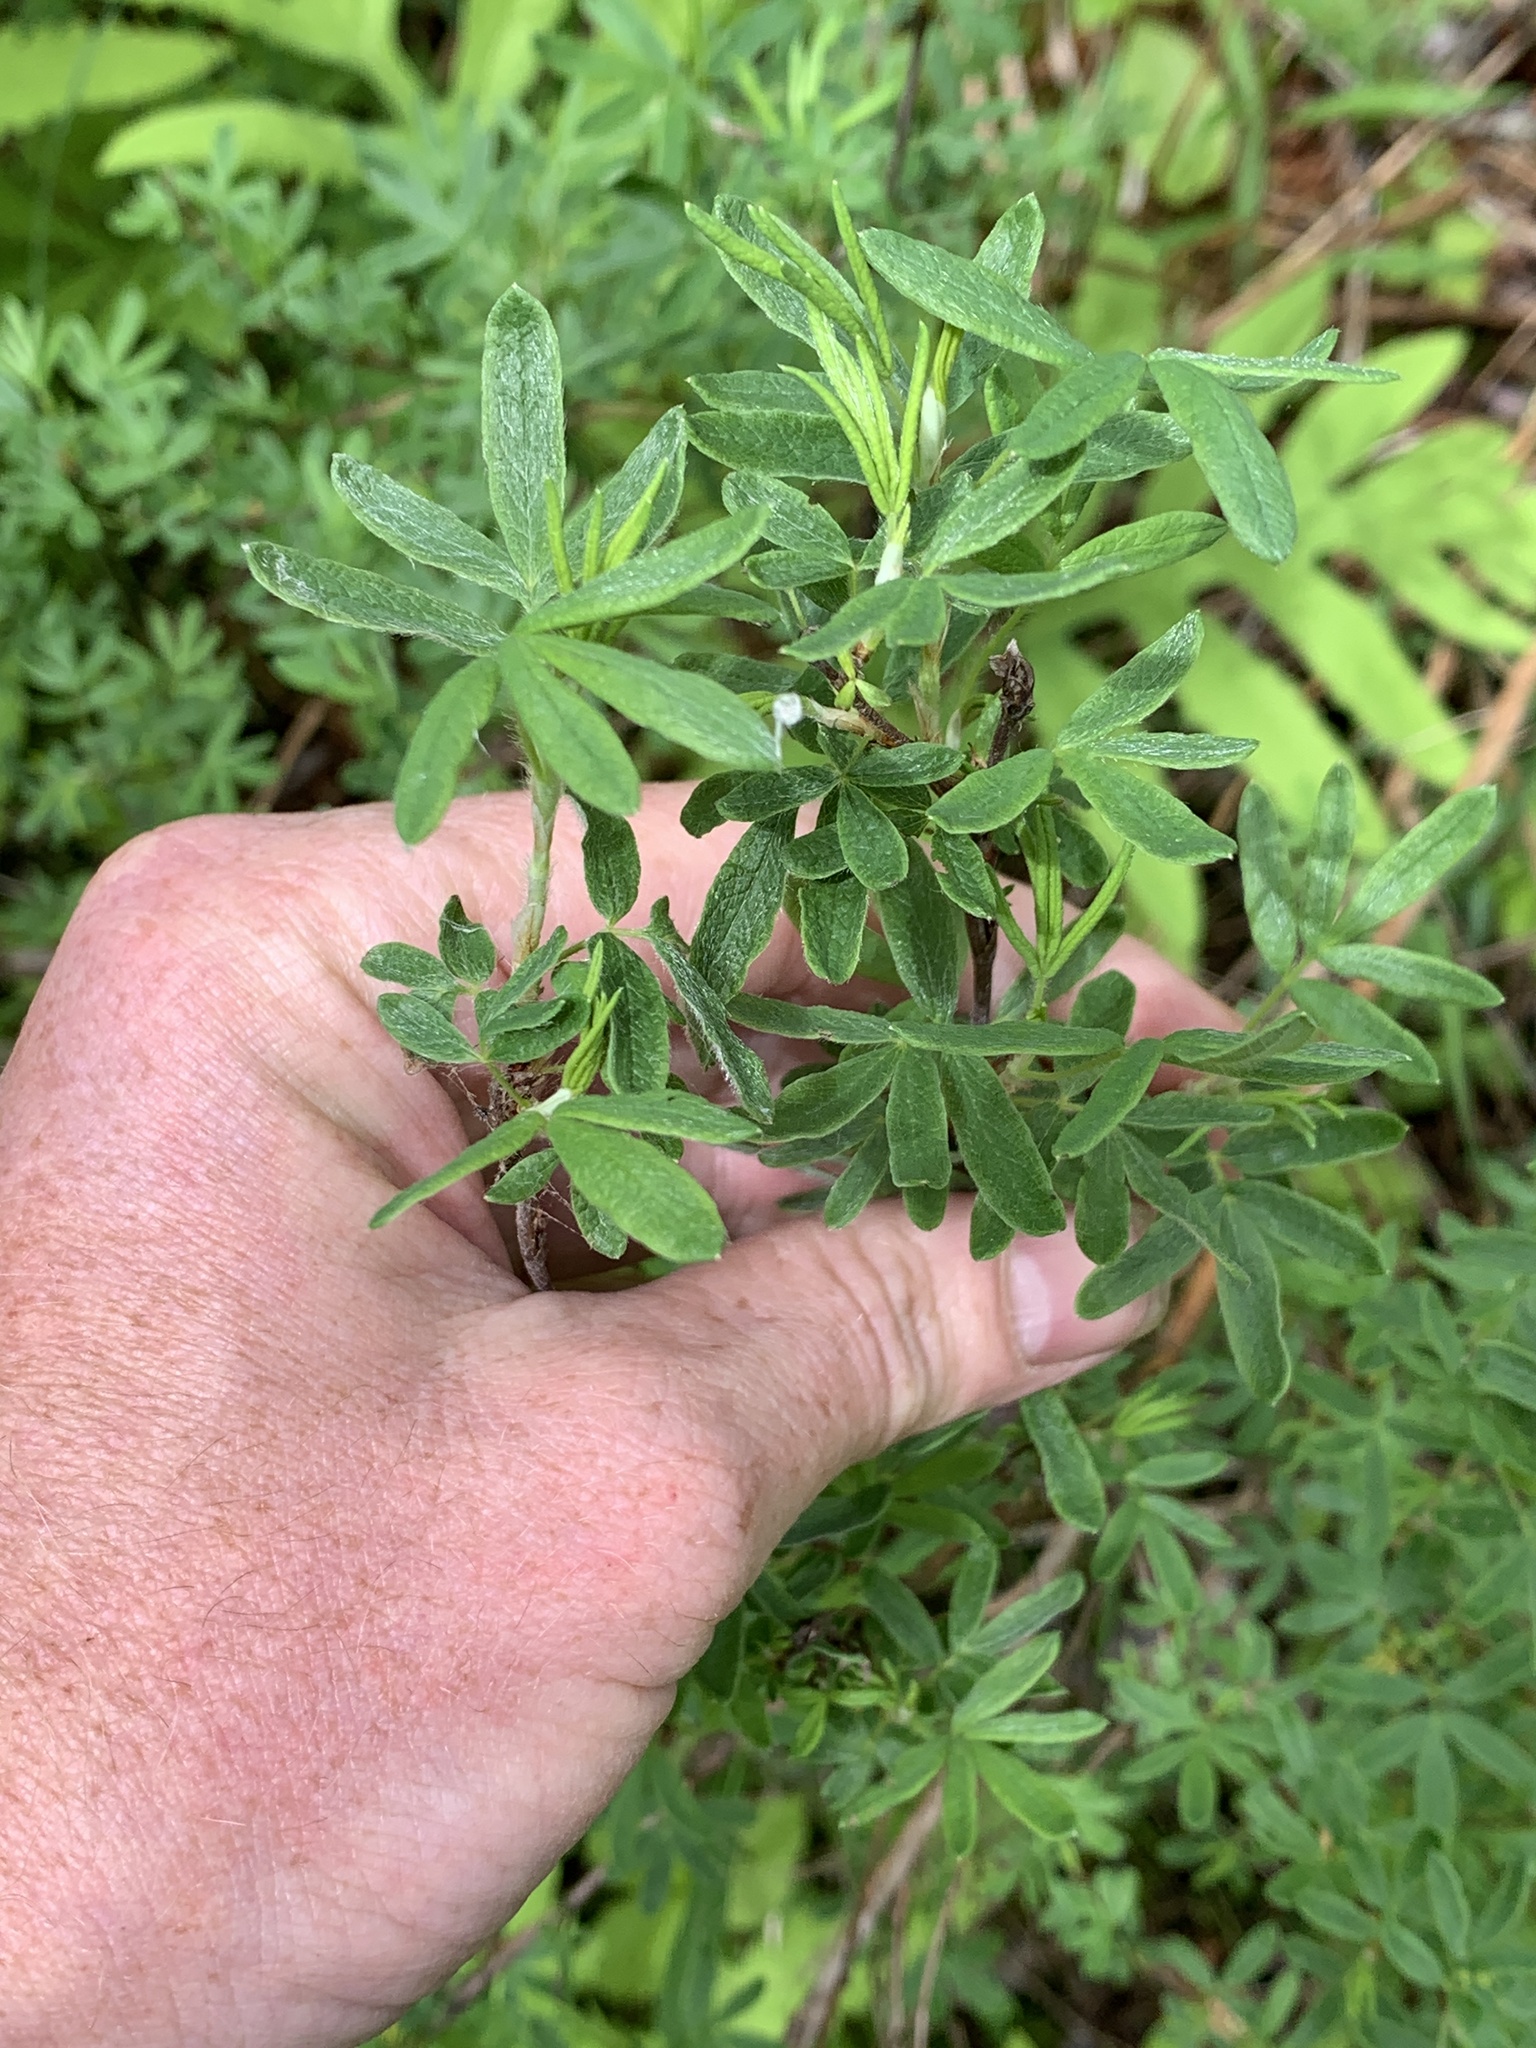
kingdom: Plantae
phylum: Tracheophyta
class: Magnoliopsida
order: Rosales
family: Rosaceae
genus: Dasiphora
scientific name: Dasiphora fruticosa
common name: Shrubby cinquefoil
